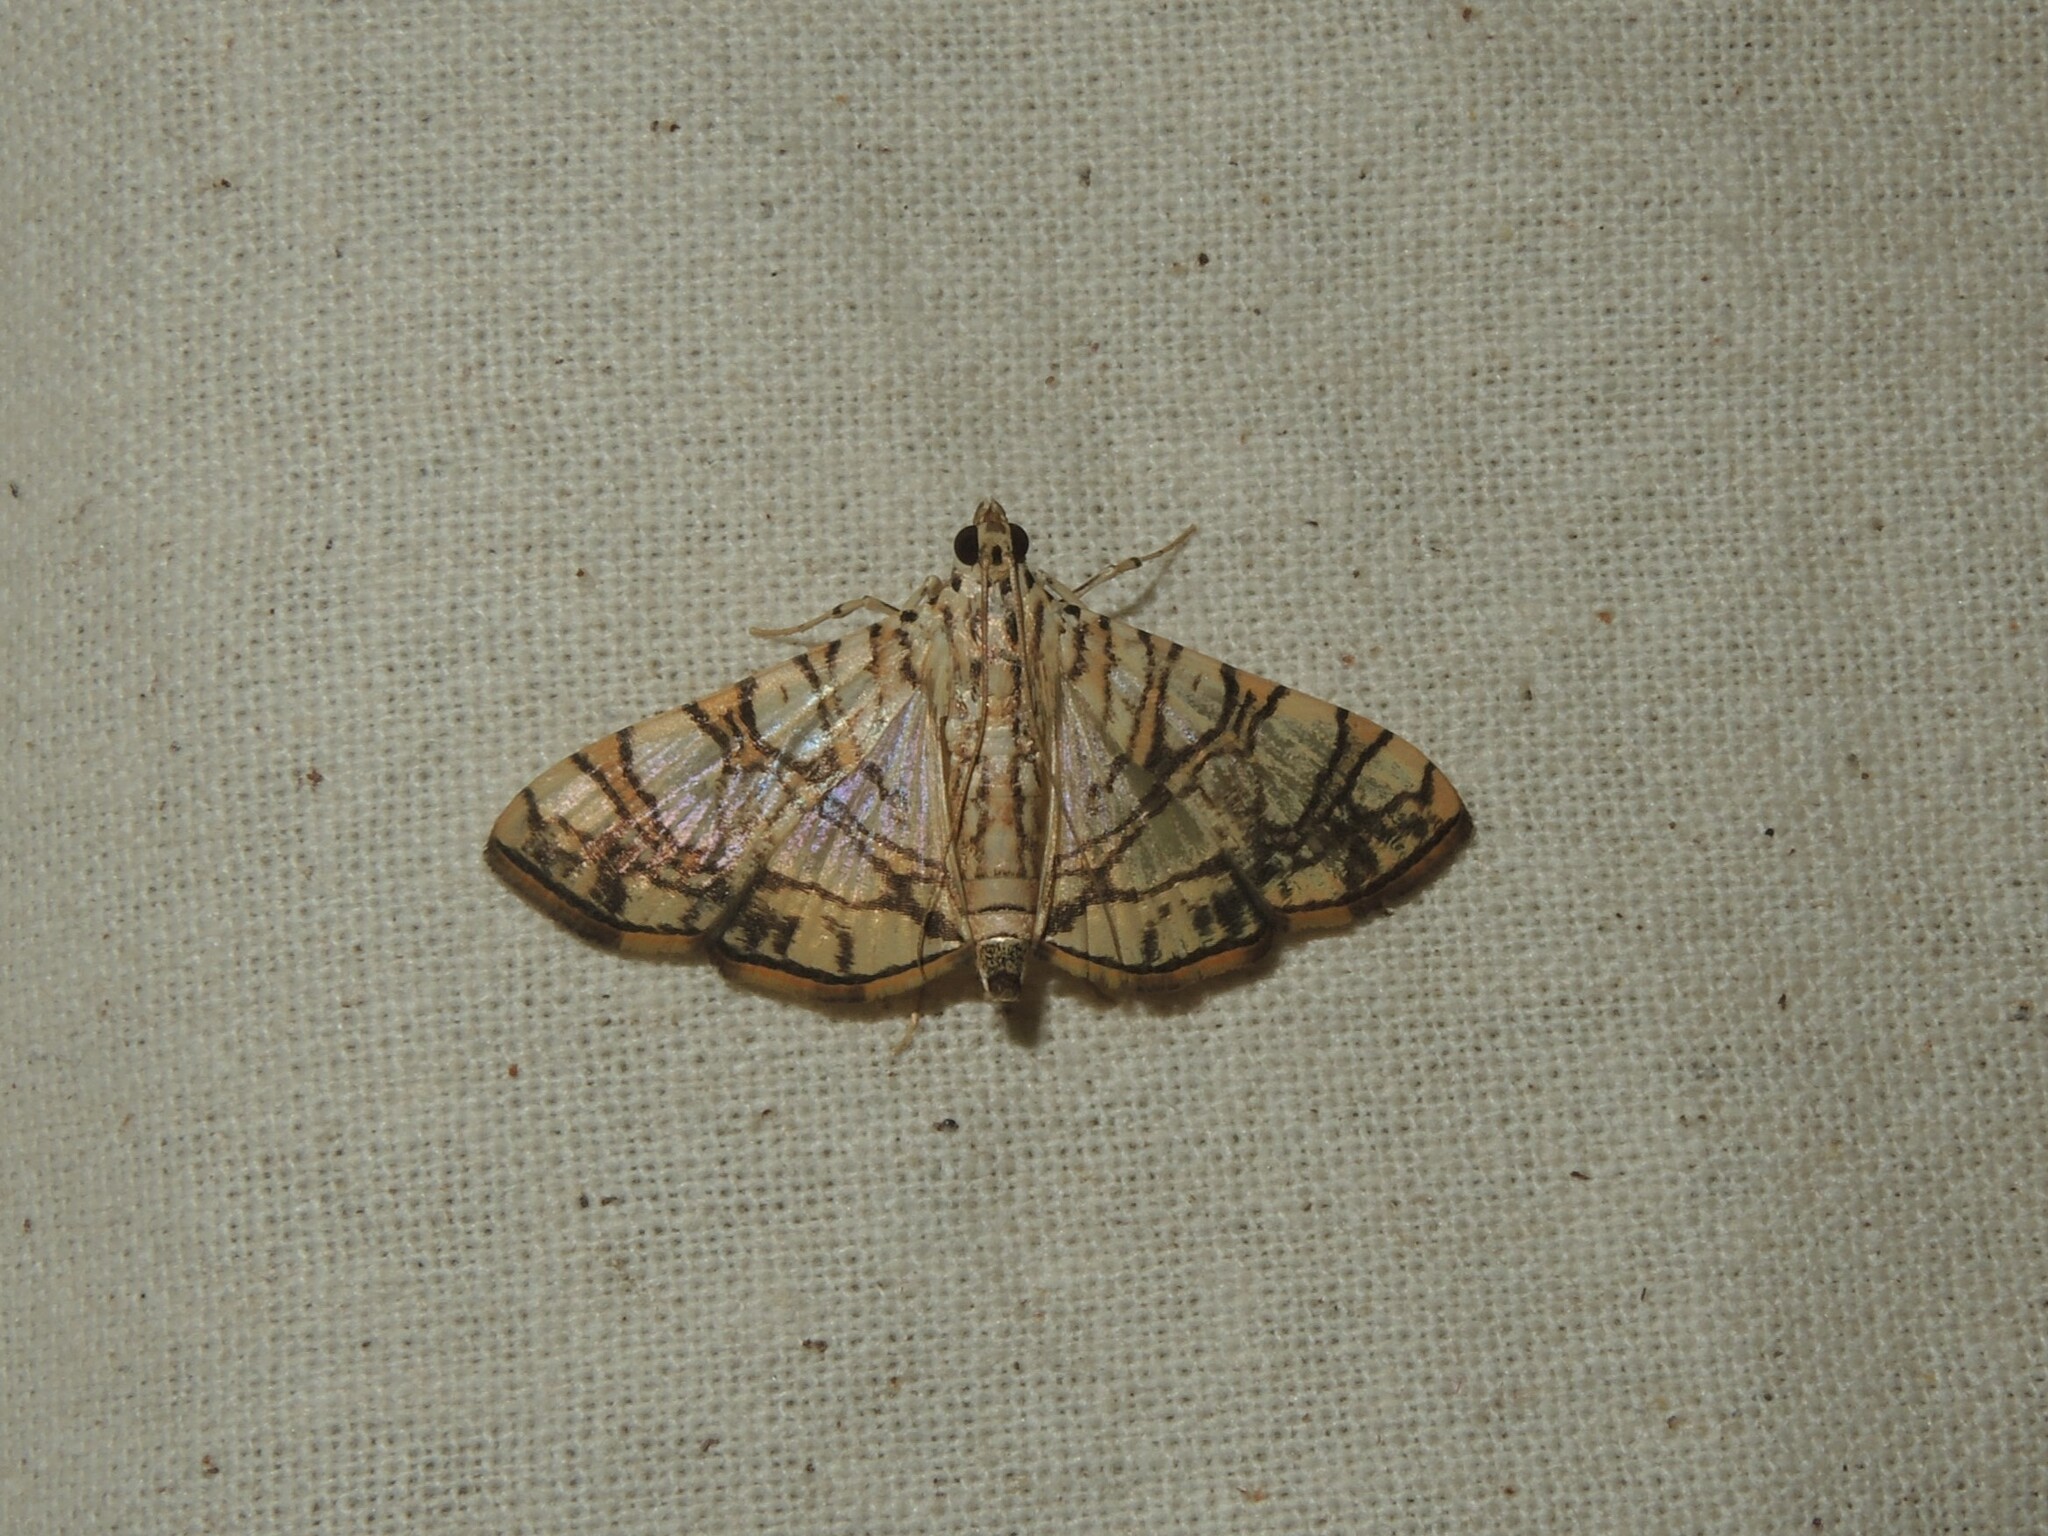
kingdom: Animalia
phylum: Arthropoda
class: Insecta
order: Lepidoptera
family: Crambidae
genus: Glyphodes
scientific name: Glyphodes caesalis
